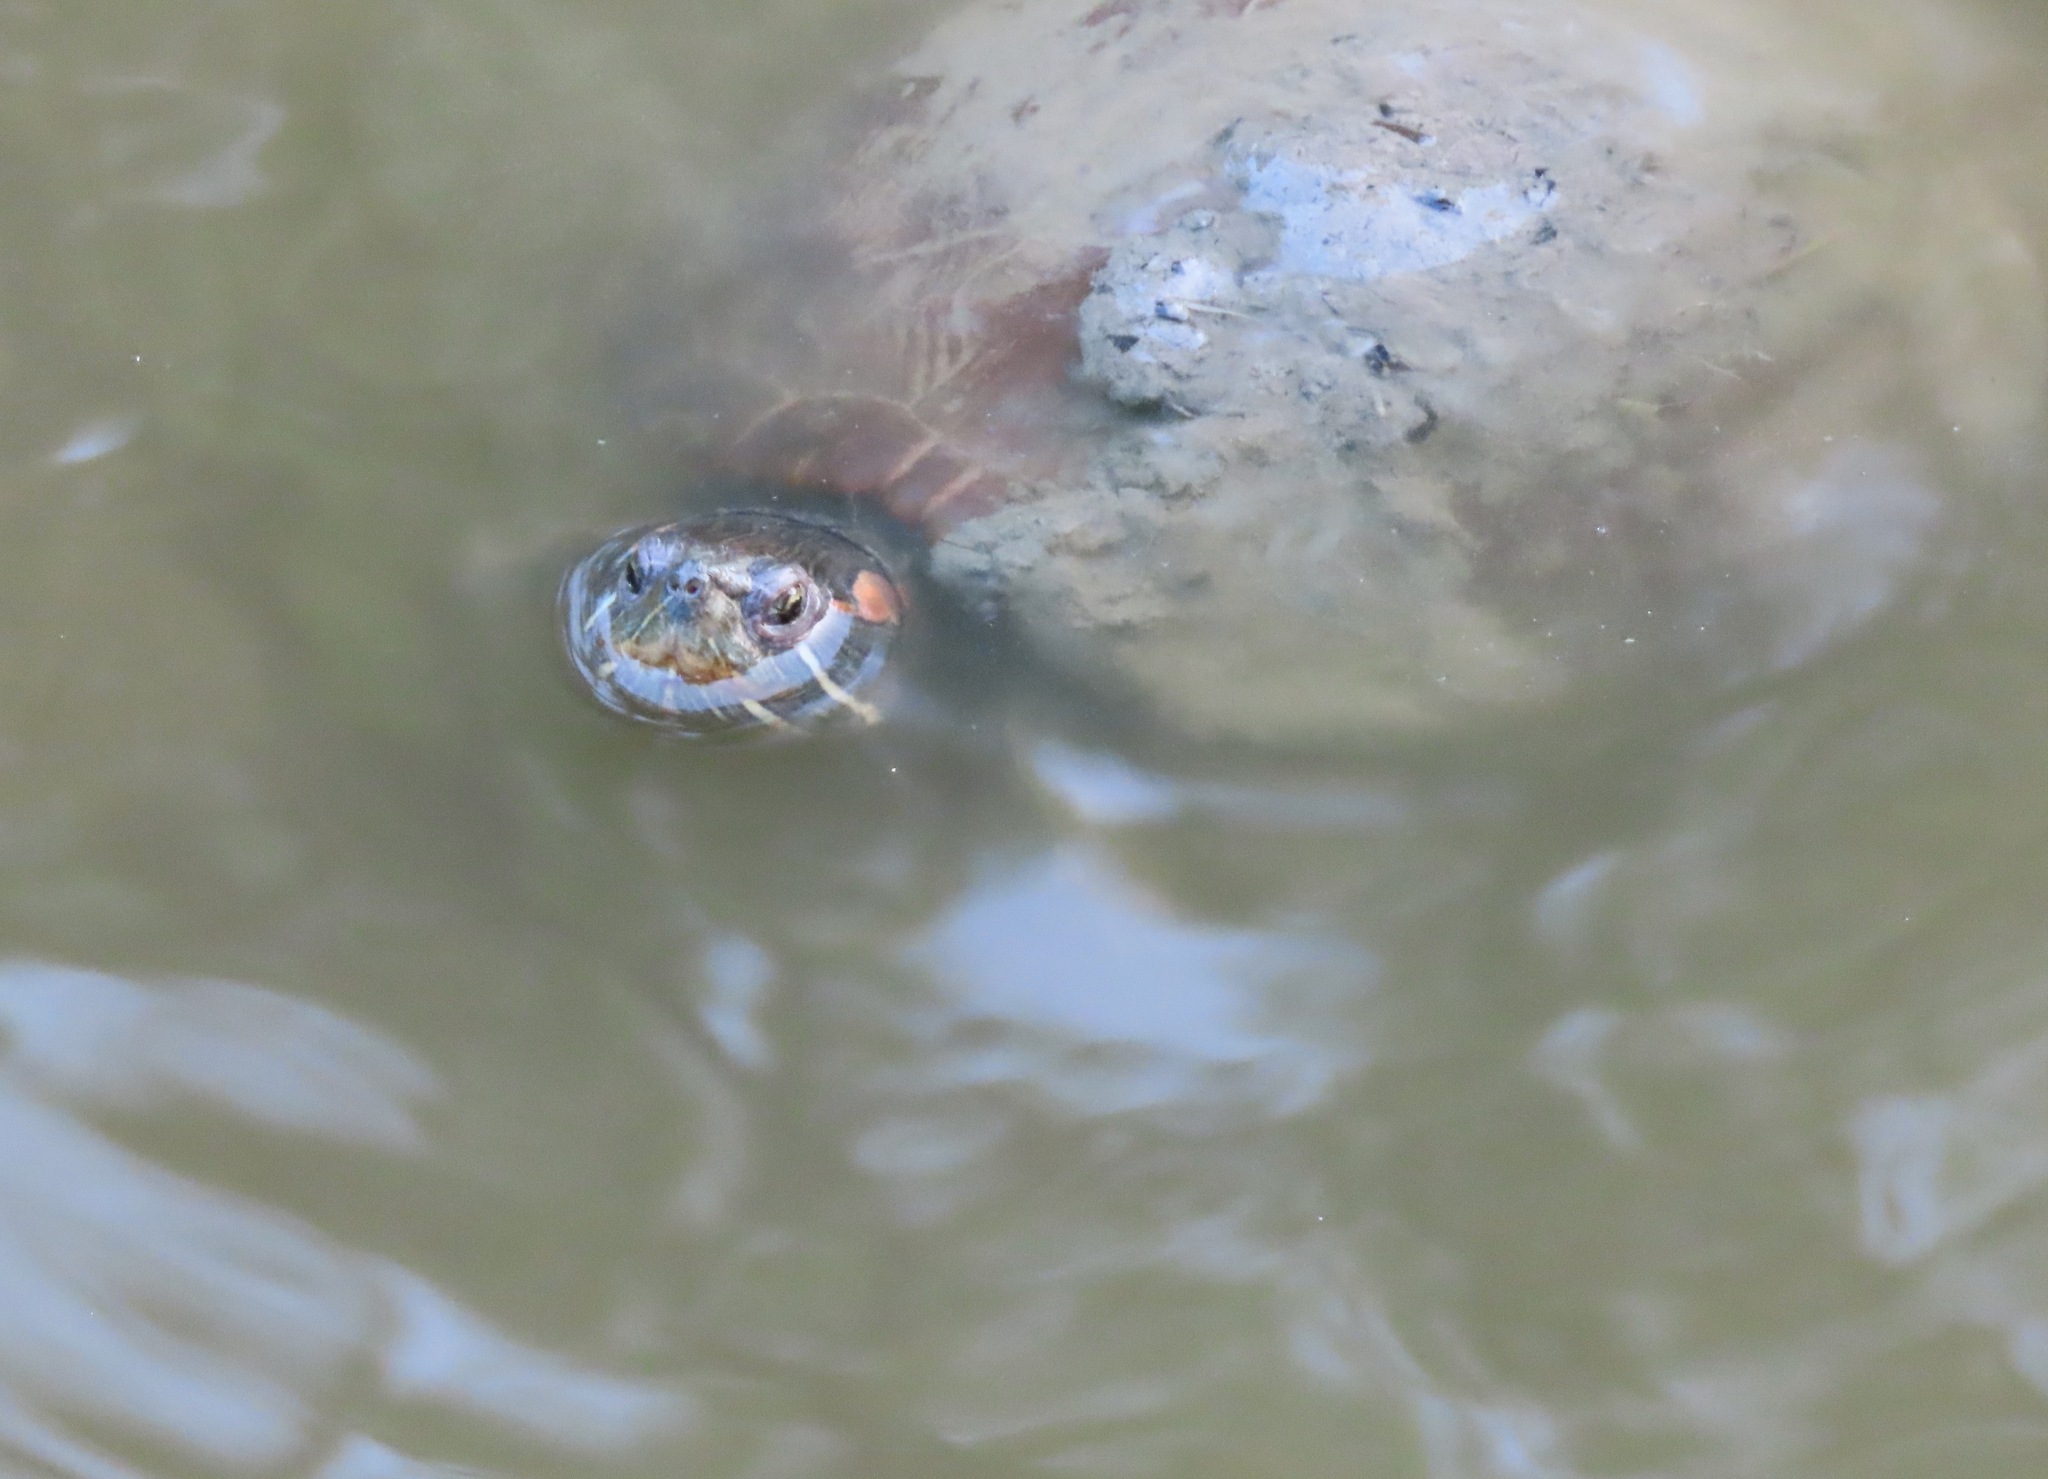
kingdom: Animalia
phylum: Chordata
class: Testudines
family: Emydidae
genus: Trachemys
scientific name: Trachemys scripta
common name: Slider
